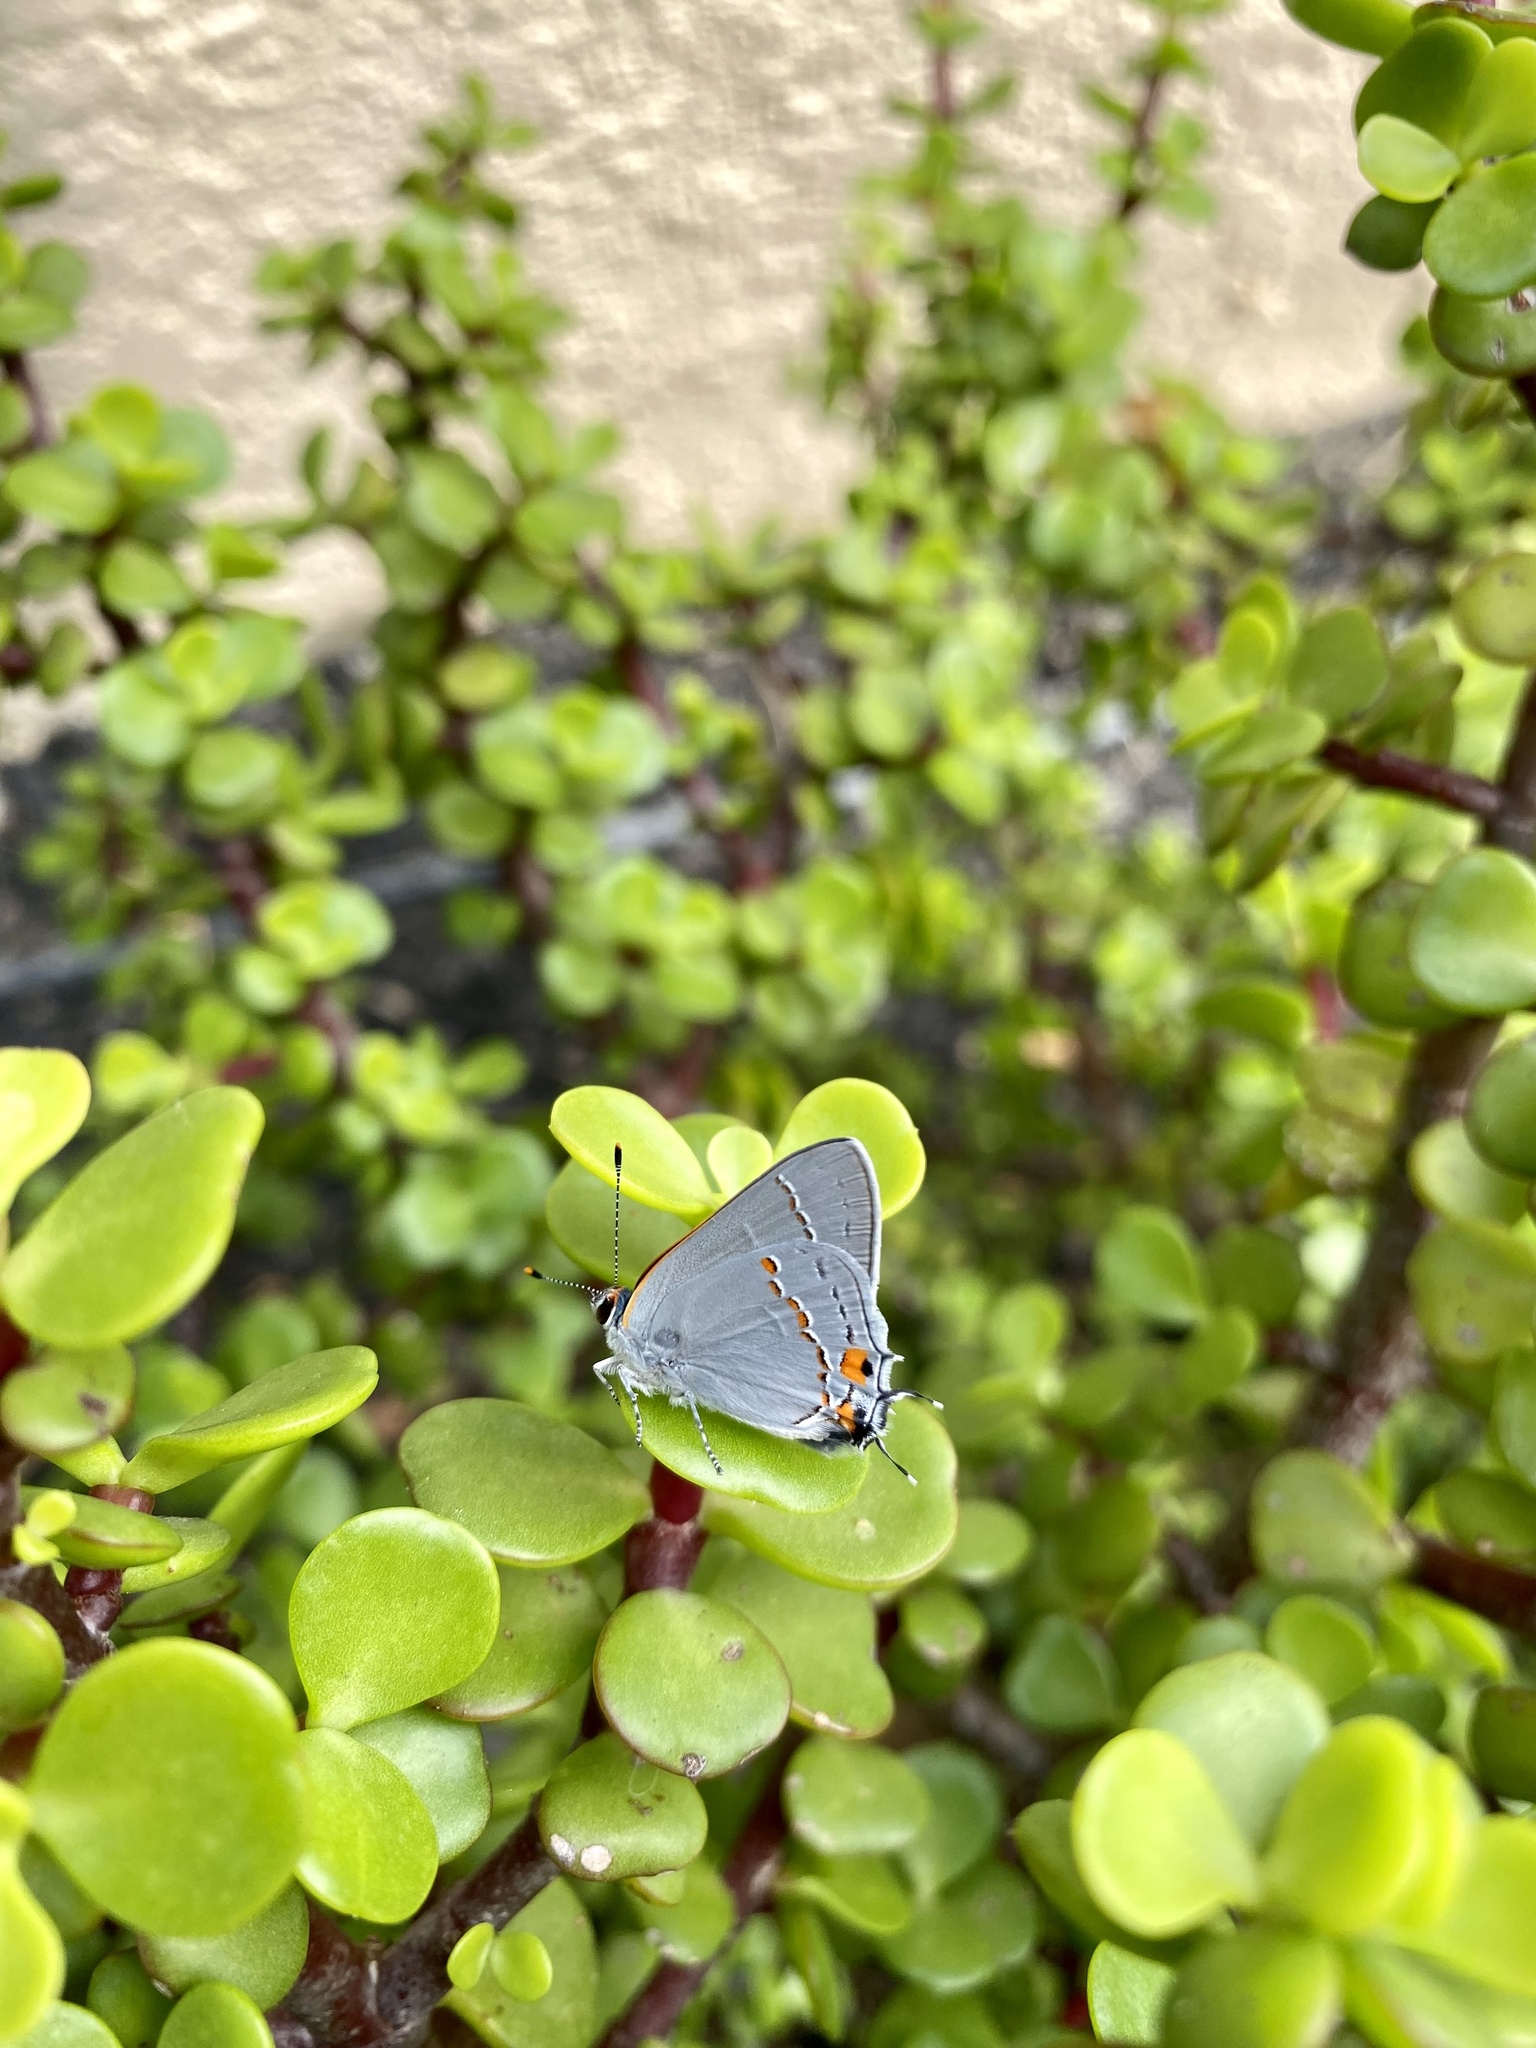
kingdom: Animalia
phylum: Arthropoda
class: Insecta
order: Lepidoptera
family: Lycaenidae
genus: Strymon
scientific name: Strymon melinus
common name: Gray hairstreak
